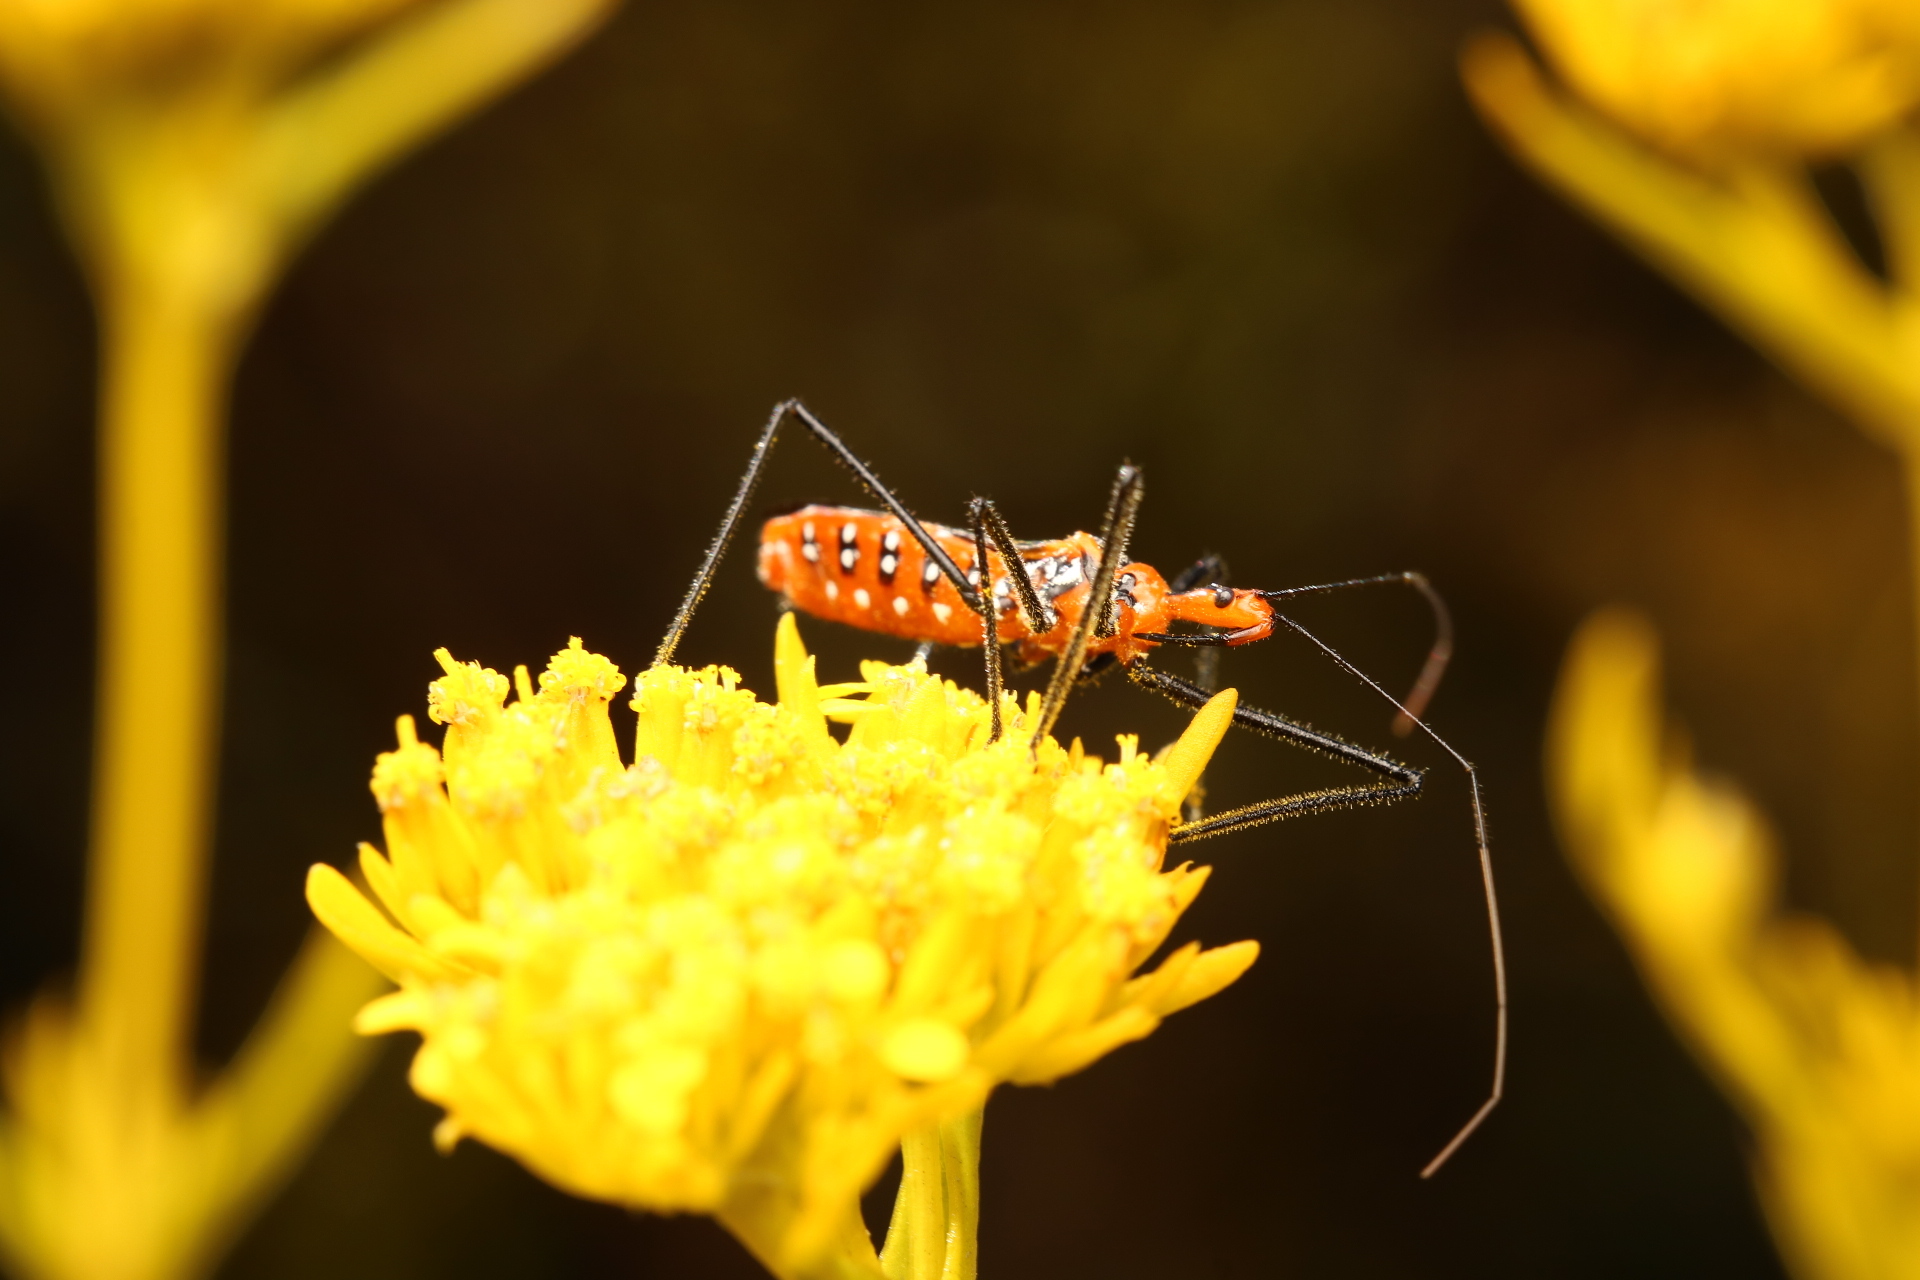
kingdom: Animalia
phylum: Arthropoda
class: Insecta
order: Hemiptera
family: Reduviidae
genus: Zelus
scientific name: Zelus longipes
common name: Milkweed assassin bug
